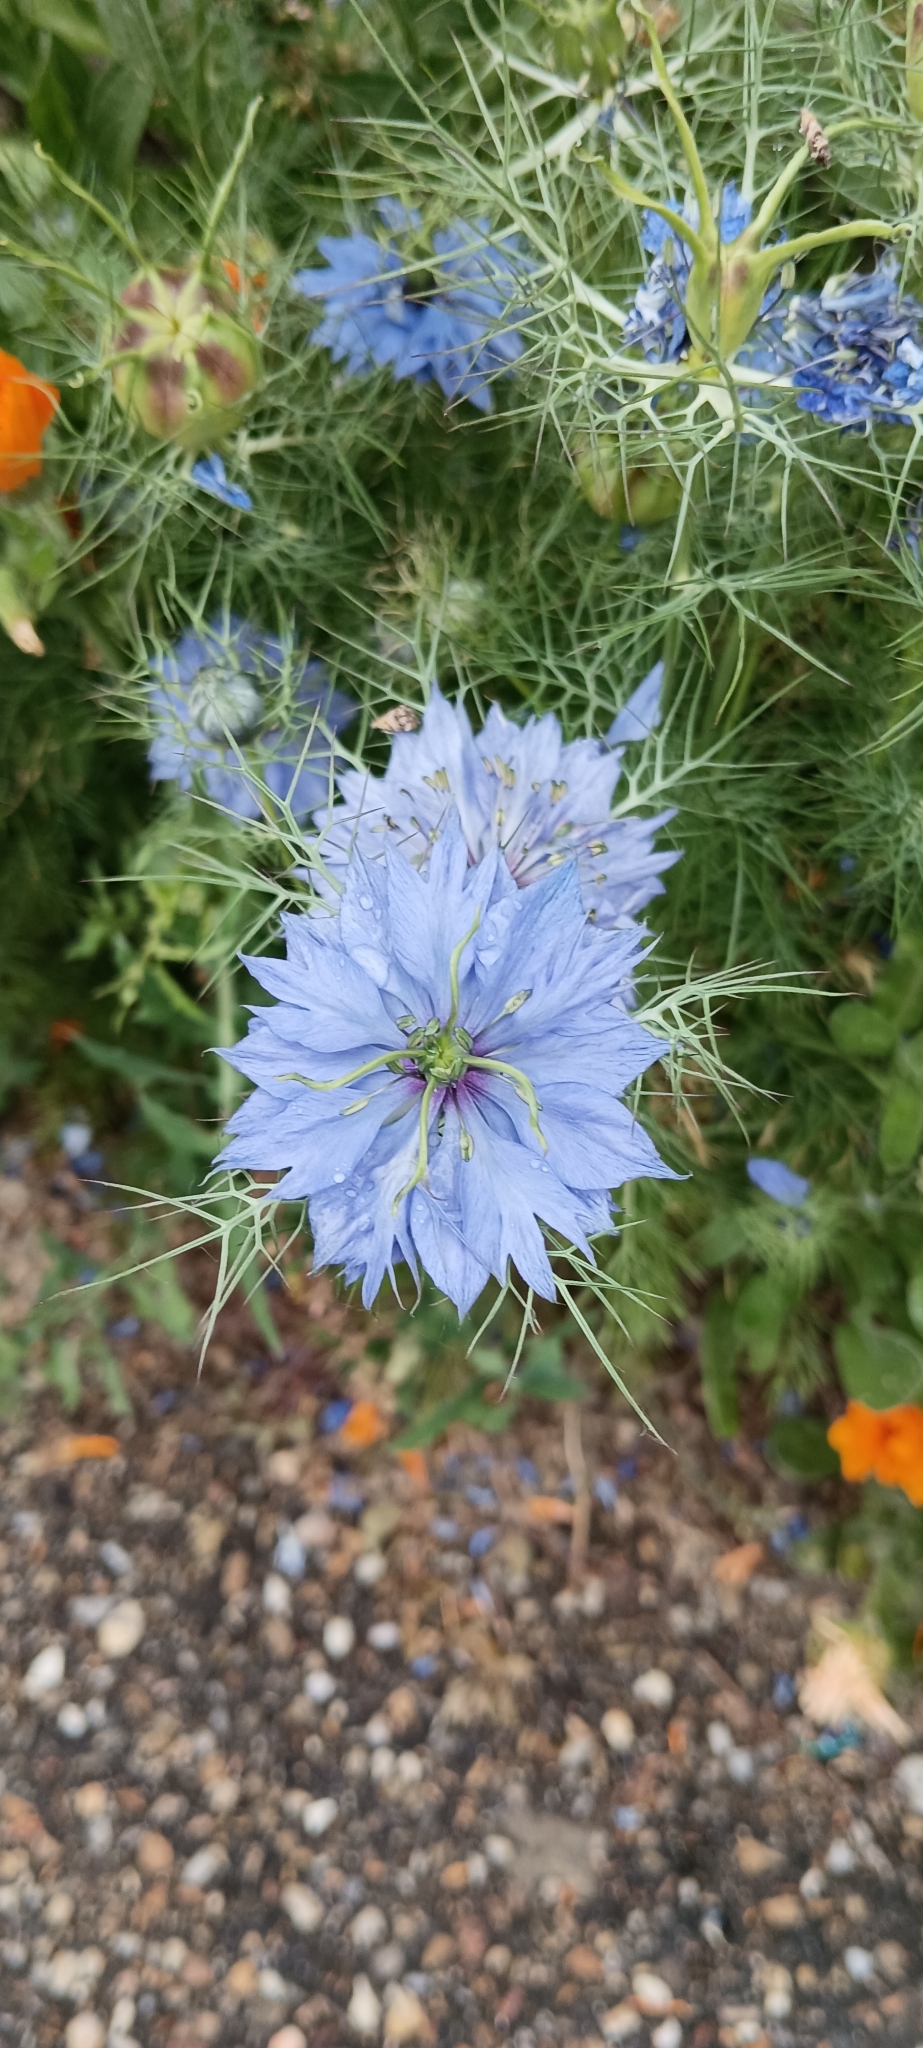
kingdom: Plantae
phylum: Tracheophyta
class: Magnoliopsida
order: Ranunculales
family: Ranunculaceae
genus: Nigella
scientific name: Nigella damascena
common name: Love-in-a-mist
